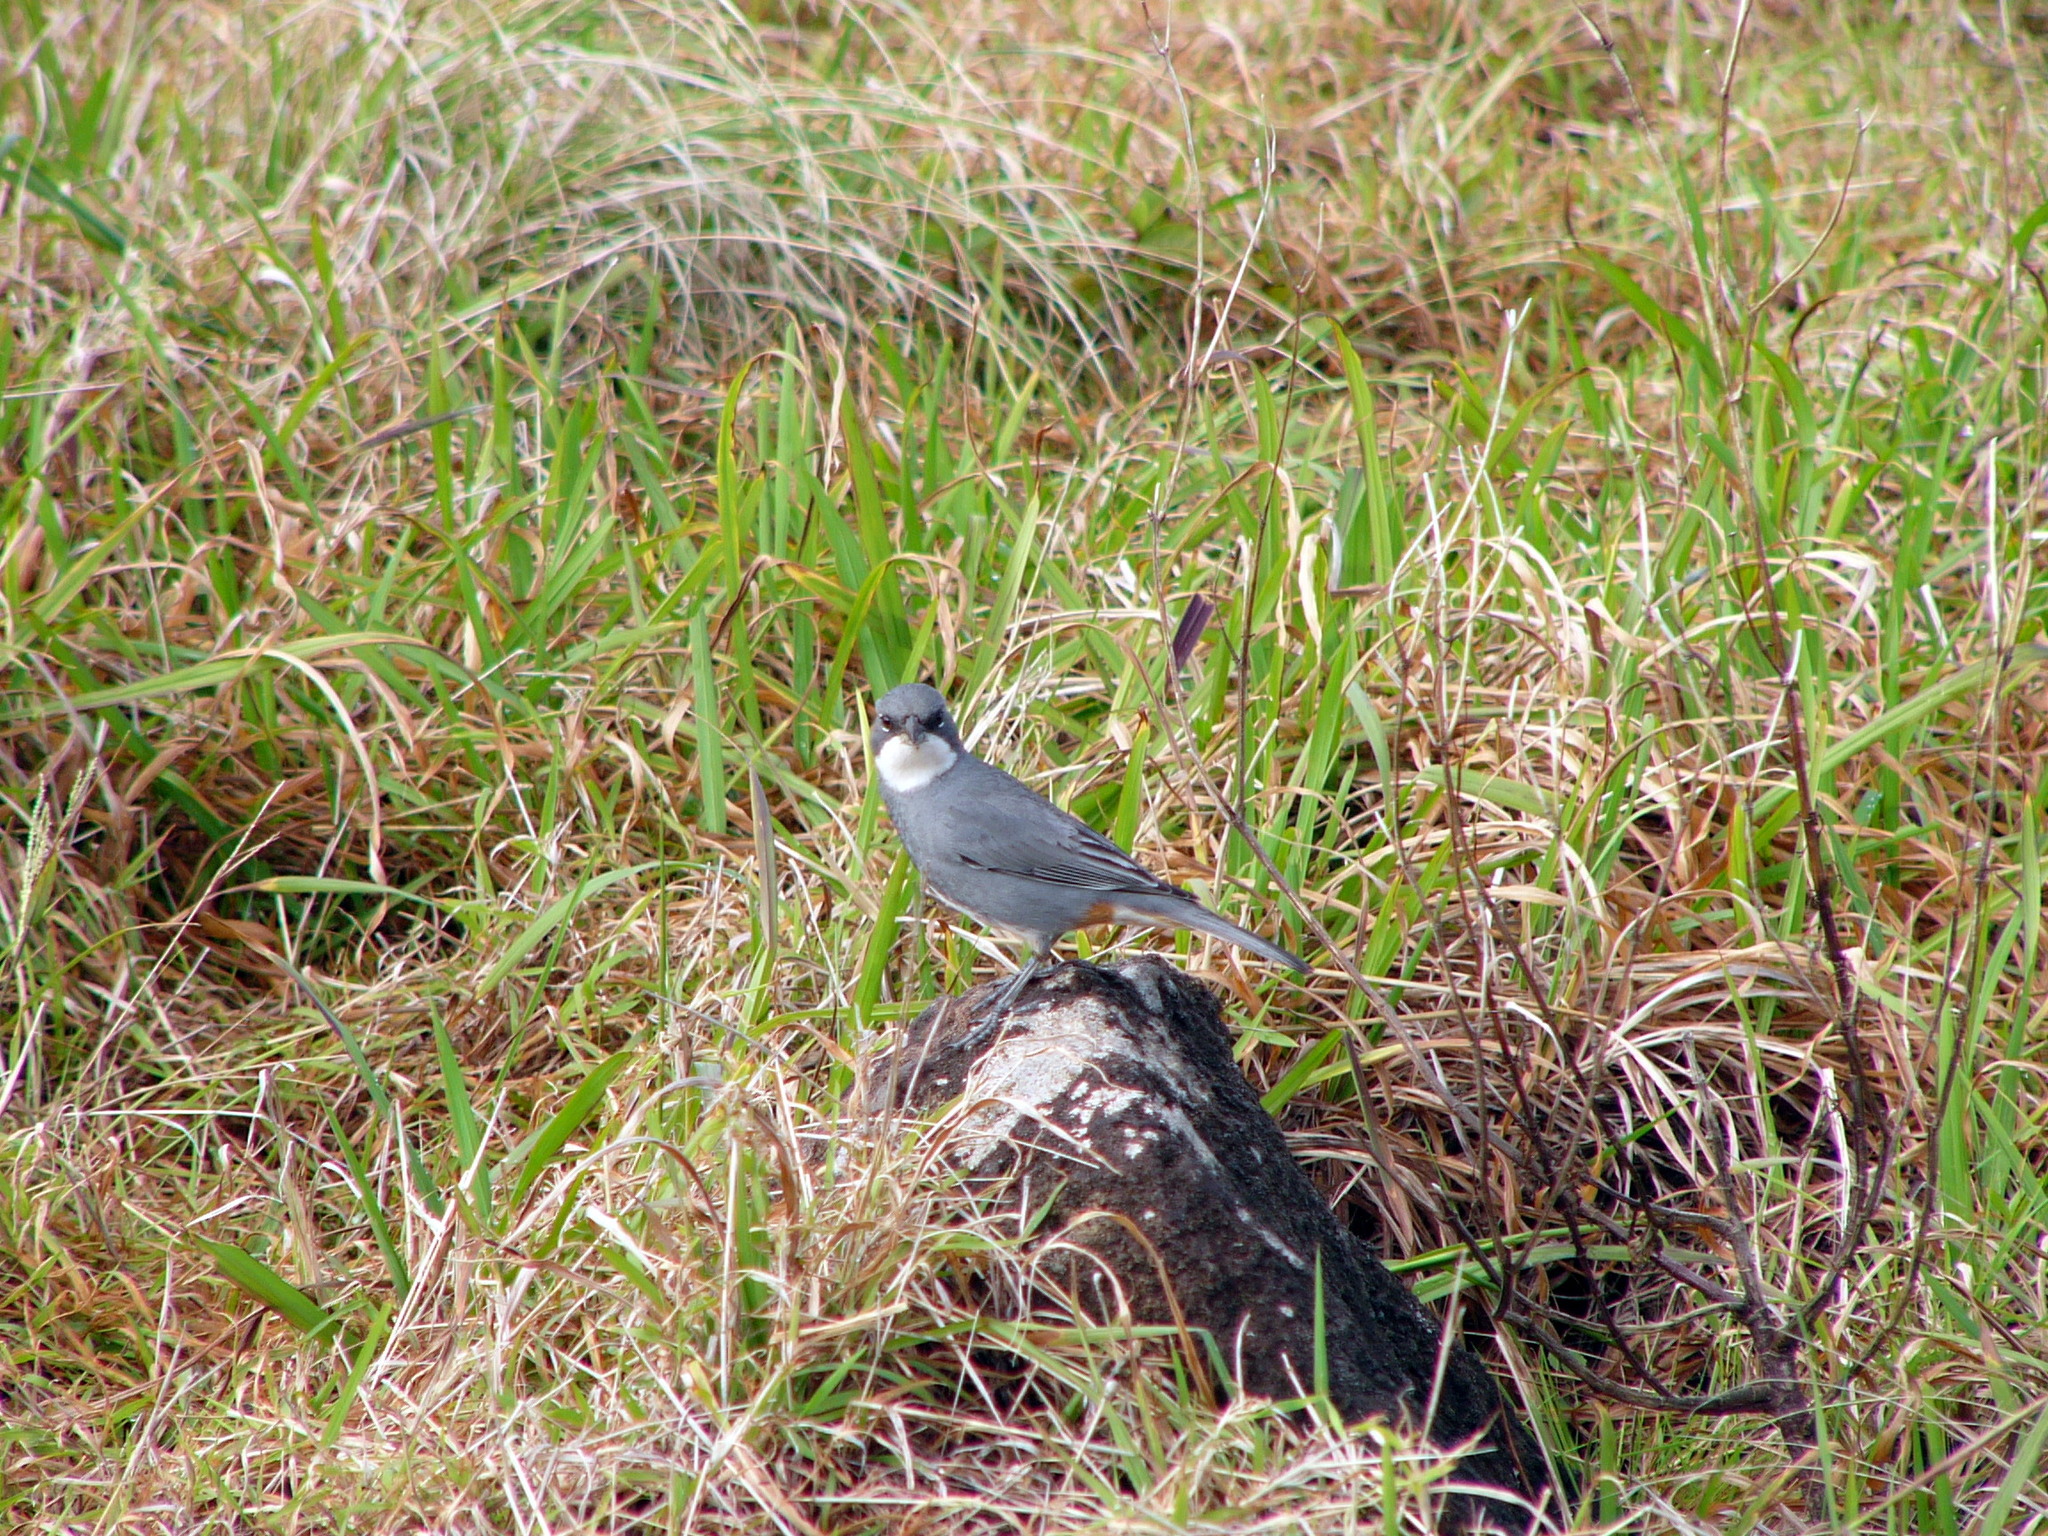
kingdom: Animalia
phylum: Chordata
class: Aves
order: Passeriformes
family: Thraupidae
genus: Diuca
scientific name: Diuca diuca
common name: Common diuca finch
